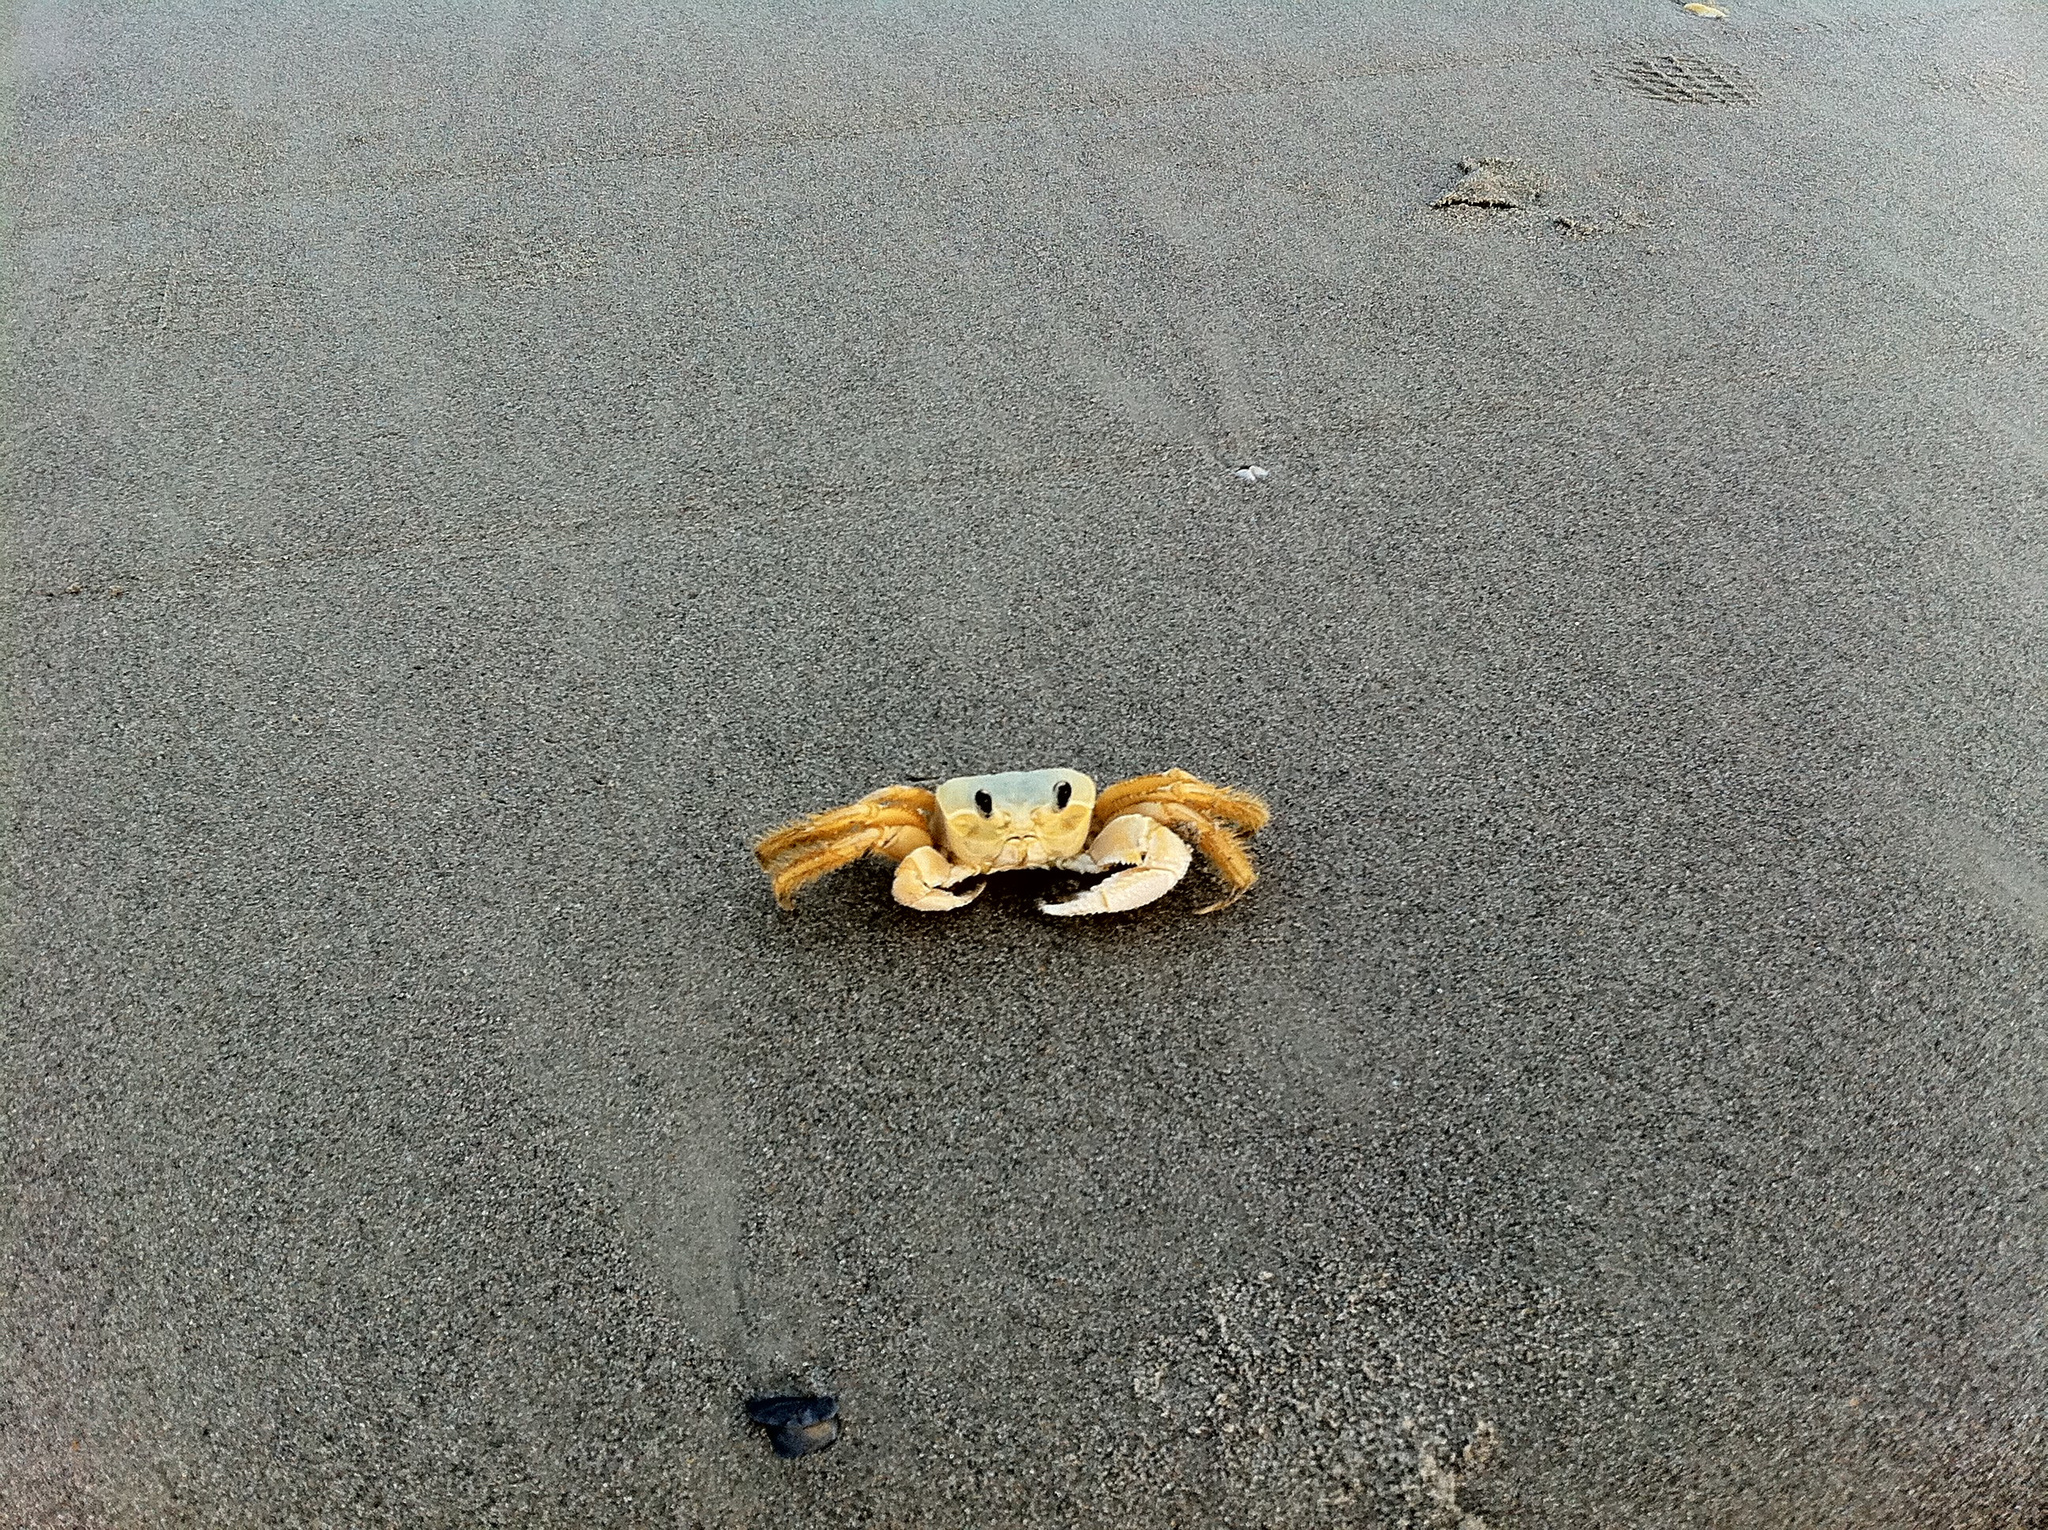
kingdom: Animalia
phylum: Arthropoda
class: Malacostraca
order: Decapoda
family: Ocypodidae
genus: Ocypode
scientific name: Ocypode quadrata
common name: Ghost crab
